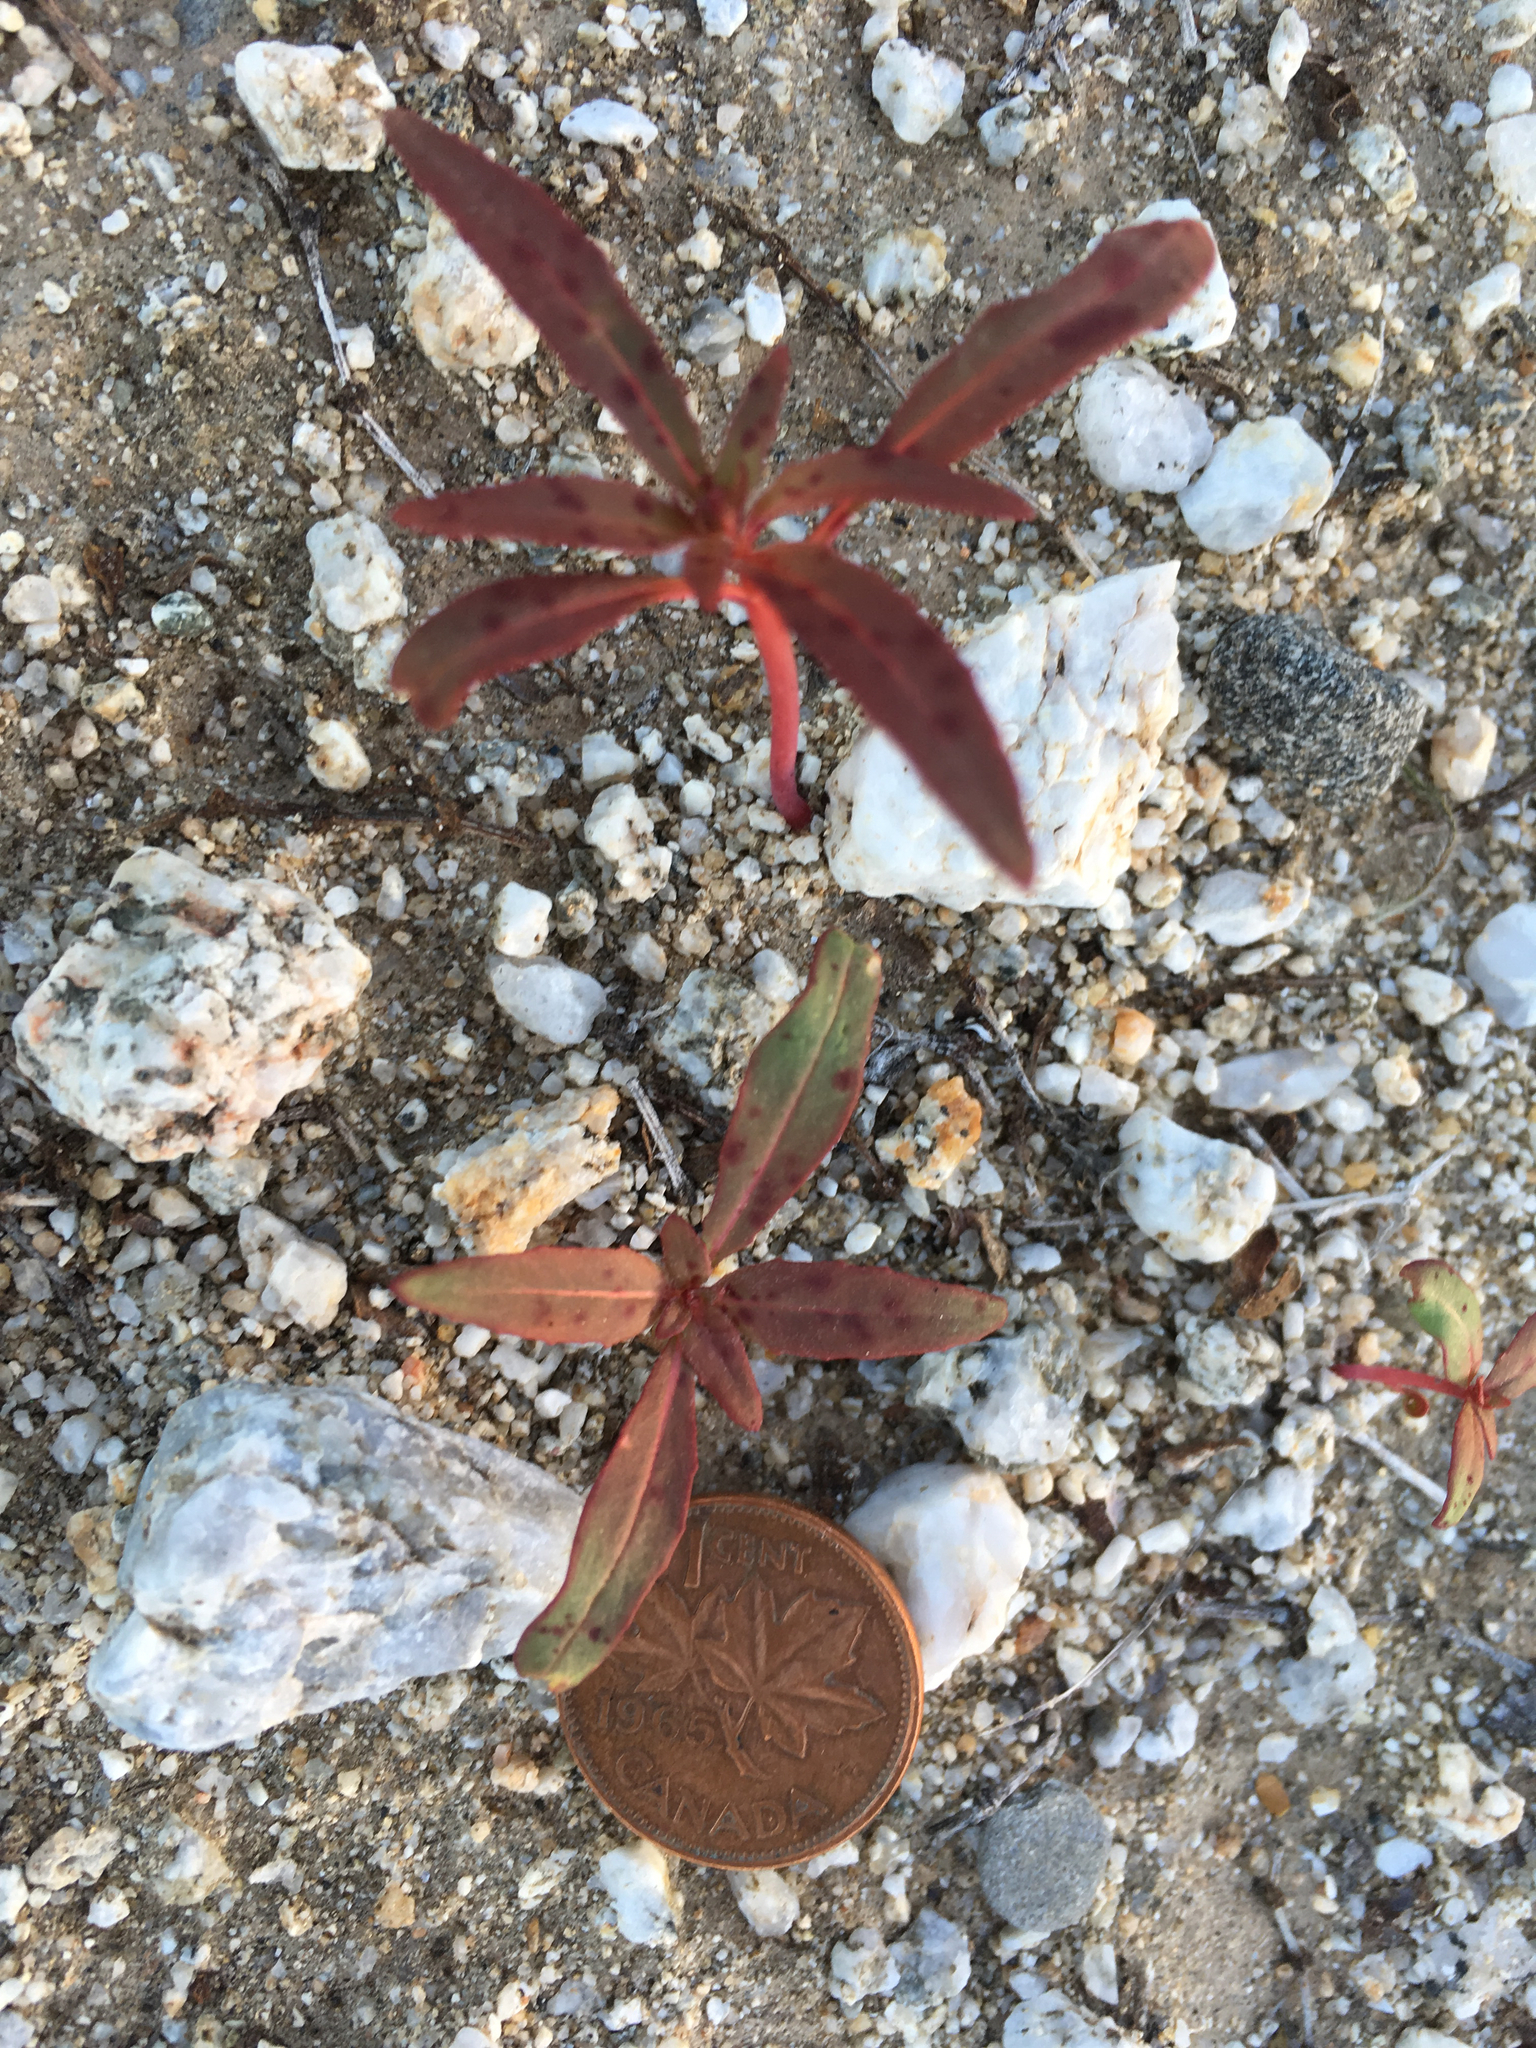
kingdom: Plantae
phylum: Tracheophyta
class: Magnoliopsida
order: Myrtales
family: Onagraceae
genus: Eremothera
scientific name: Eremothera boothii
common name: Booth's evening primrose
